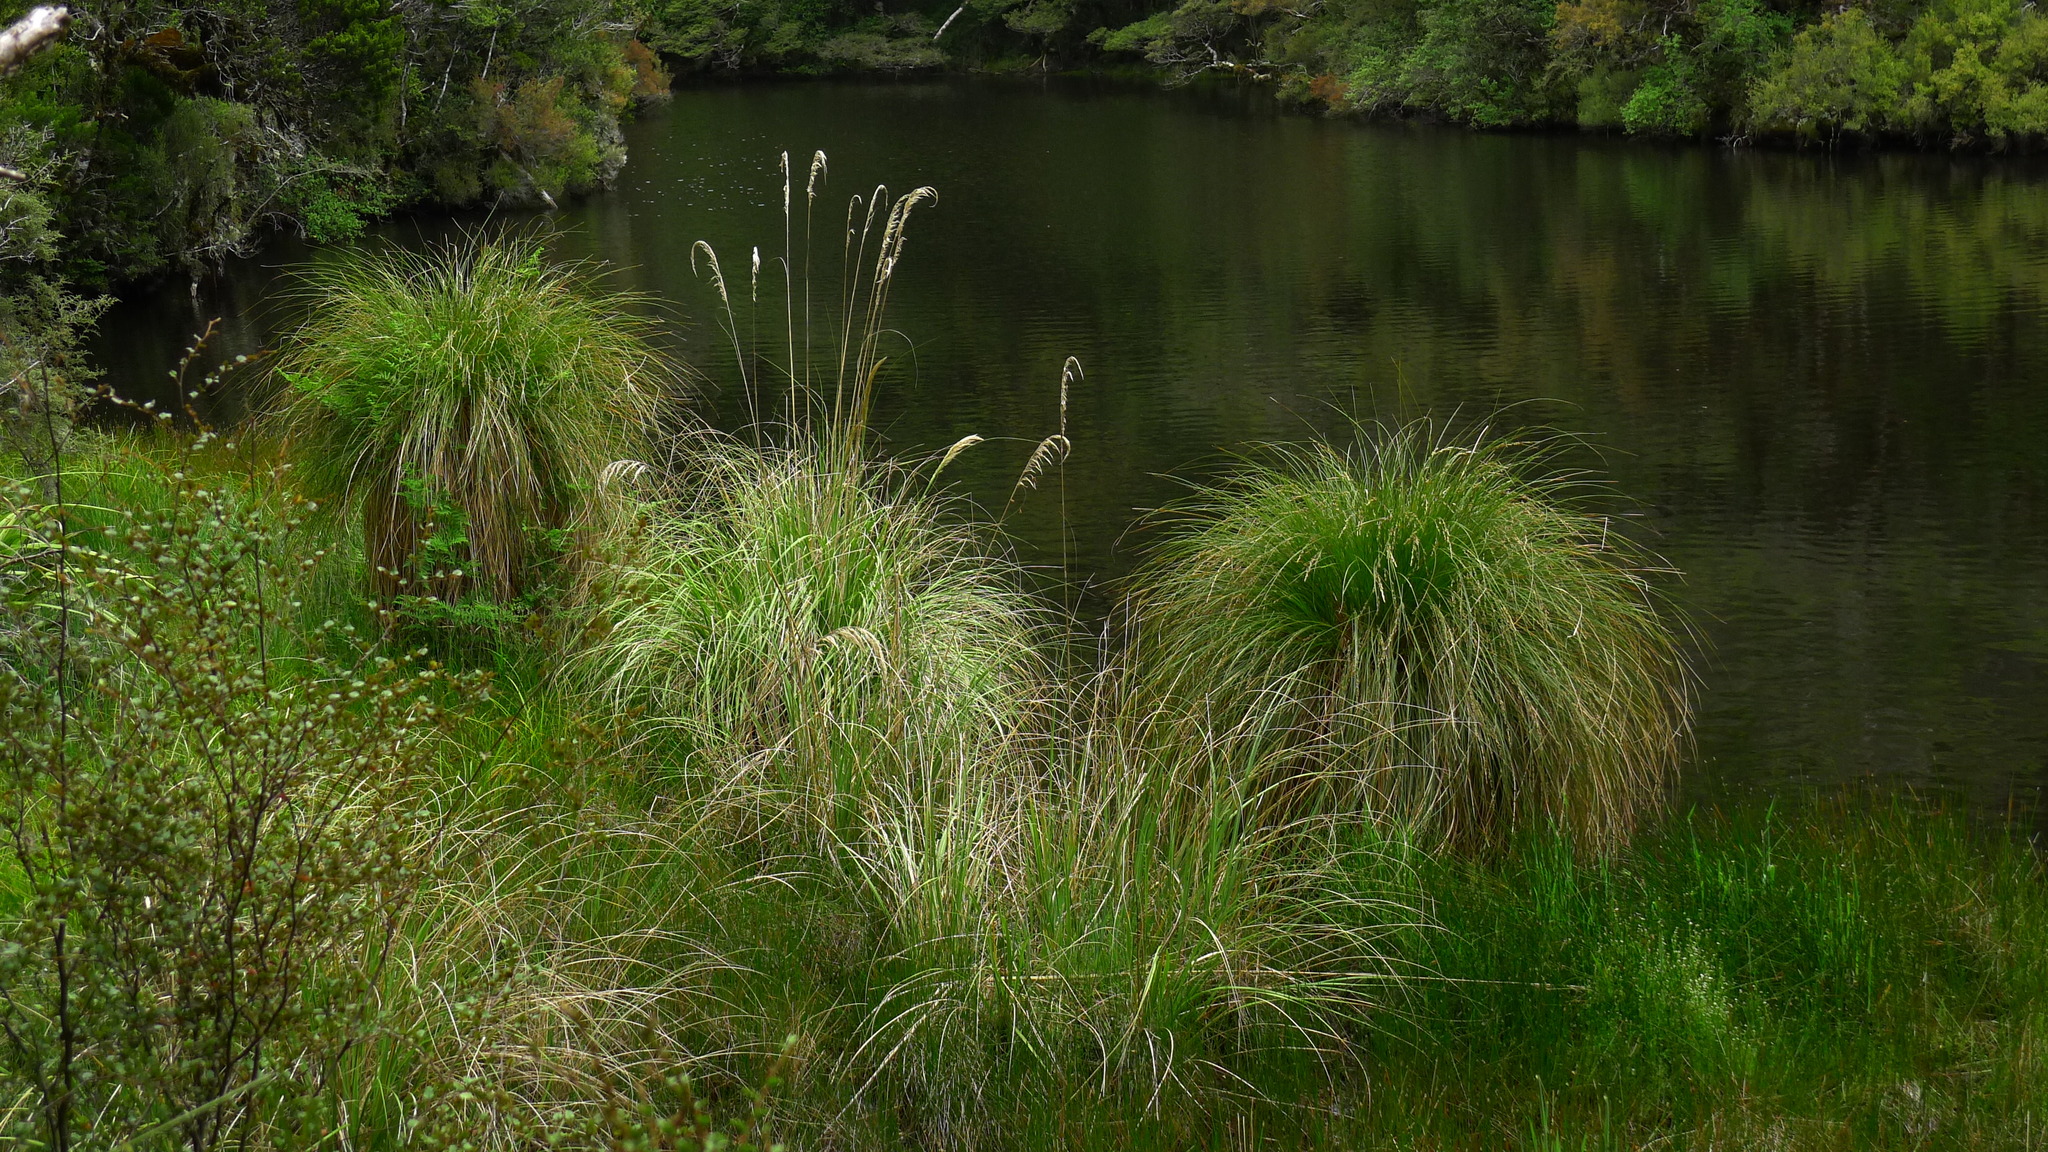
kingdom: Plantae
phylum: Tracheophyta
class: Liliopsida
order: Poales
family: Cyperaceae
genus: Carex
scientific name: Carex secta
